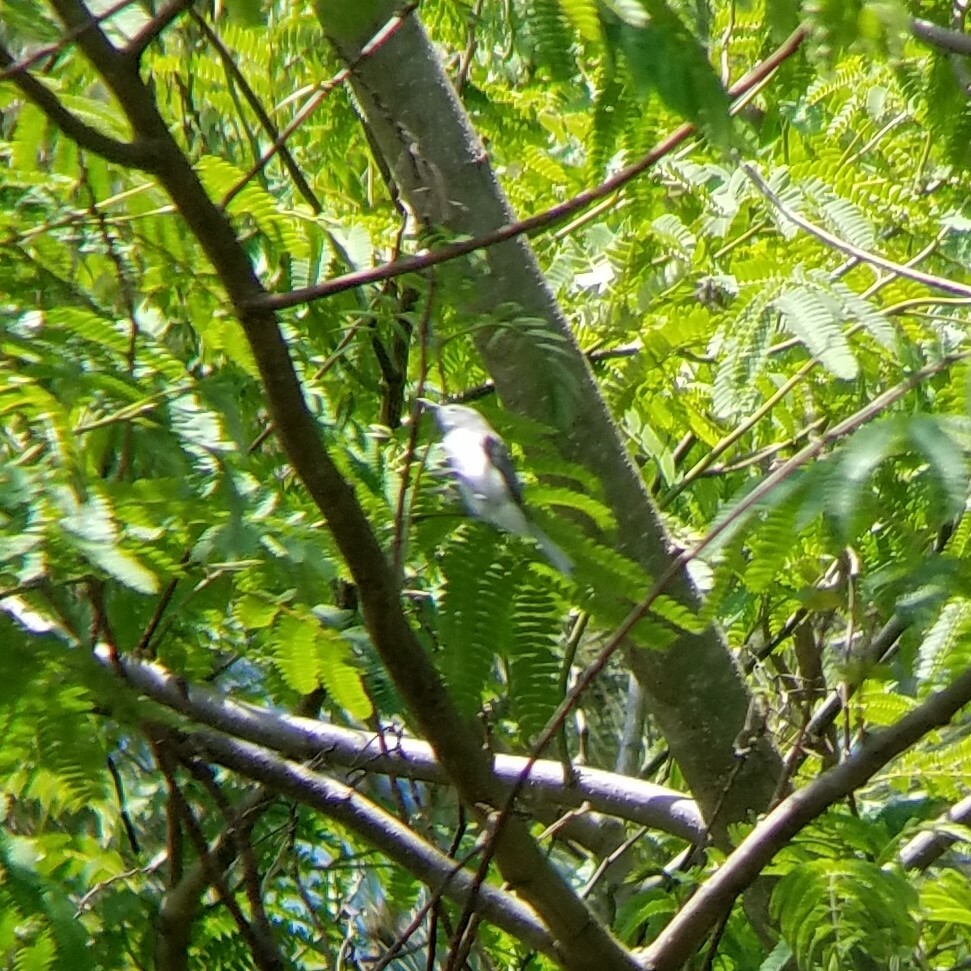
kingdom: Animalia
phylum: Chordata
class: Aves
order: Passeriformes
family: Polioptilidae
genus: Polioptila
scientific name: Polioptila caerulea
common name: Blue-gray gnatcatcher
